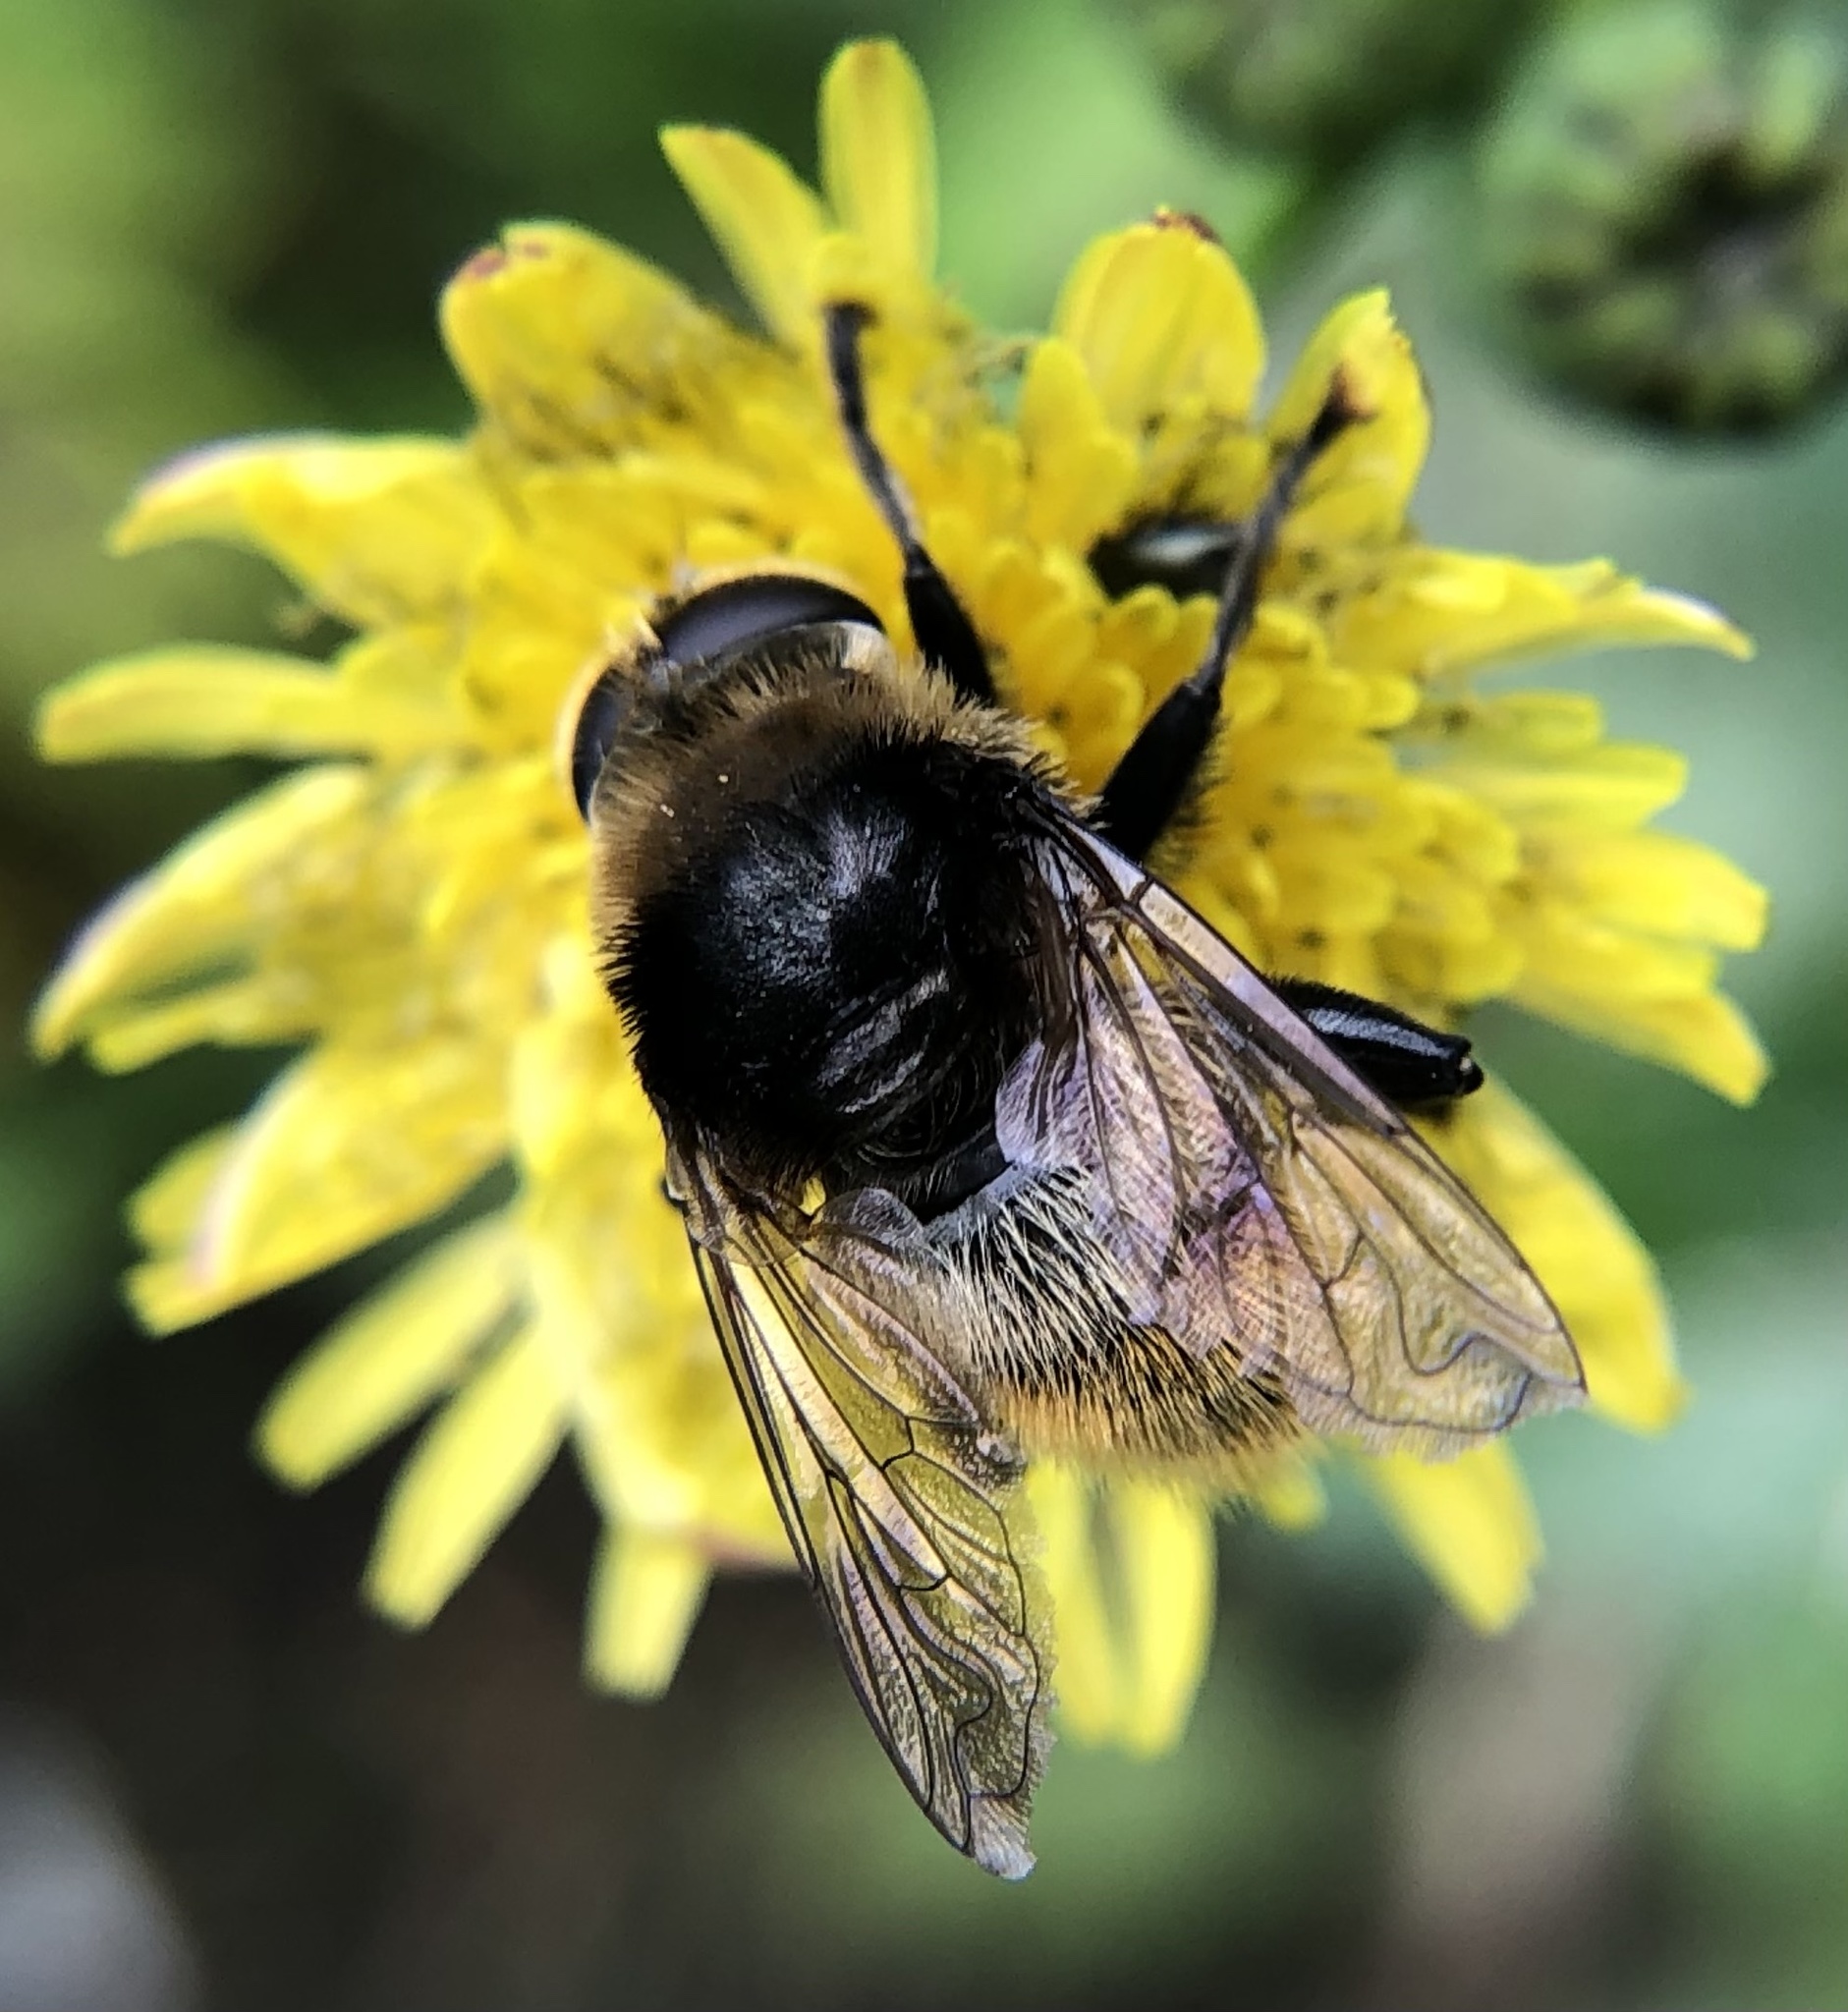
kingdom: Animalia
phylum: Arthropoda
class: Insecta
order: Diptera
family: Syrphidae
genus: Merodon
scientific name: Merodon equestris
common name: Greater bulb-fly
